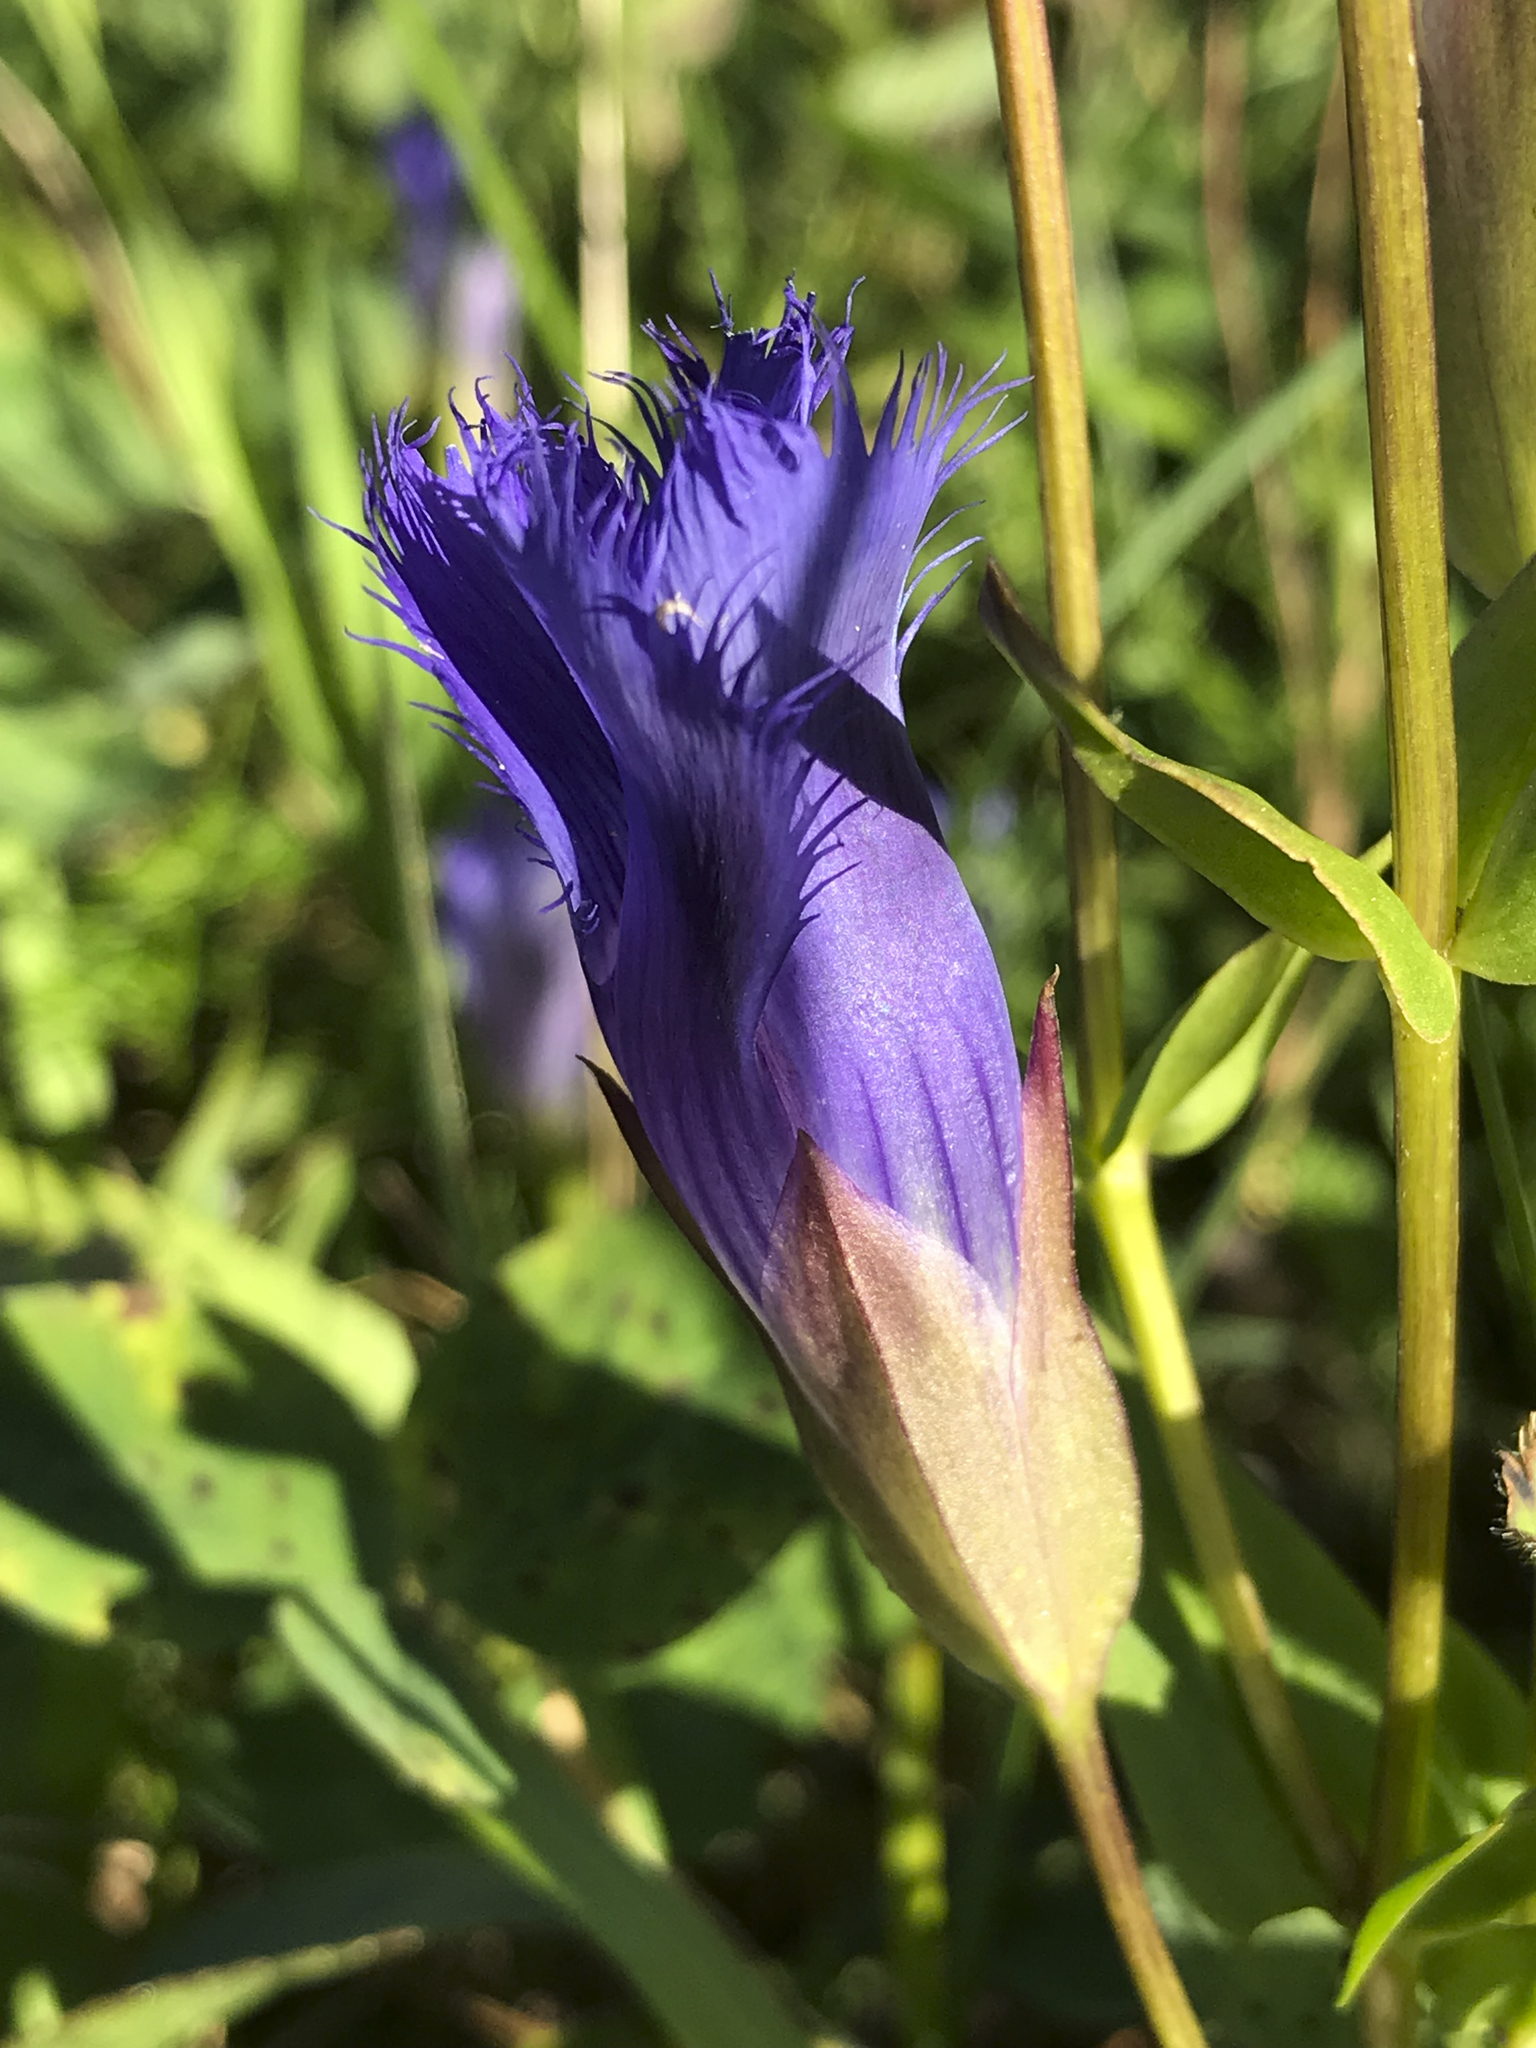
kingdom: Plantae
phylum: Tracheophyta
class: Magnoliopsida
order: Gentianales
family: Gentianaceae
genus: Gentianopsis
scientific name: Gentianopsis crinita
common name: Fringed-gentian
